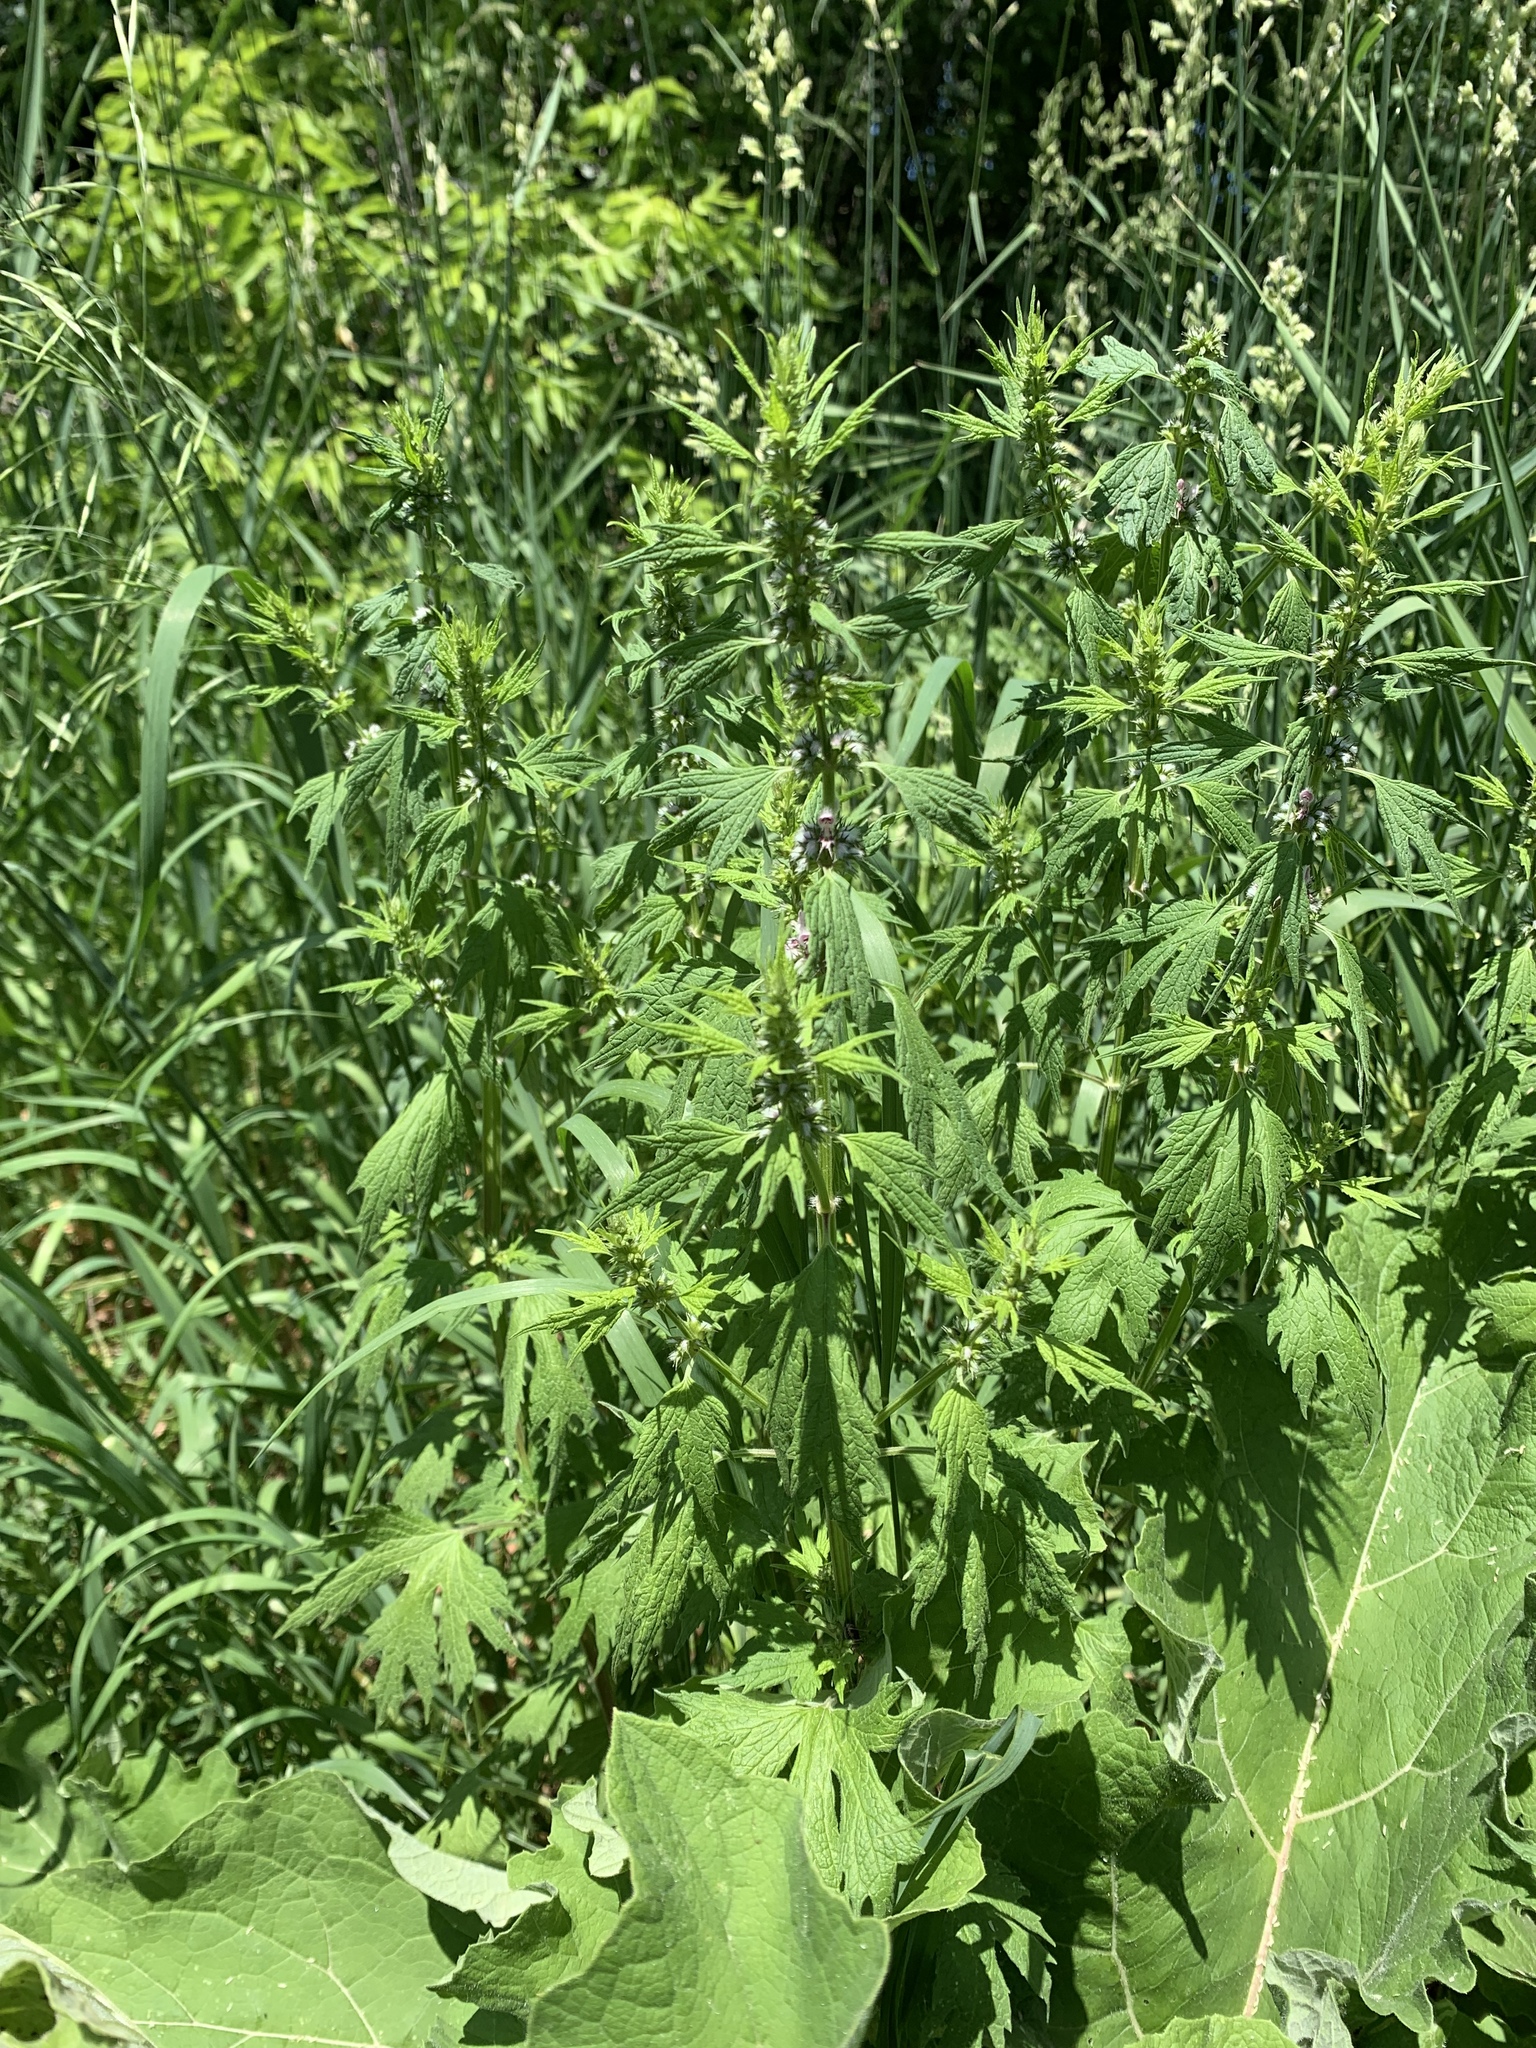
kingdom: Plantae
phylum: Tracheophyta
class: Magnoliopsida
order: Lamiales
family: Lamiaceae
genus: Leonurus
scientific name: Leonurus cardiaca
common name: Motherwort
